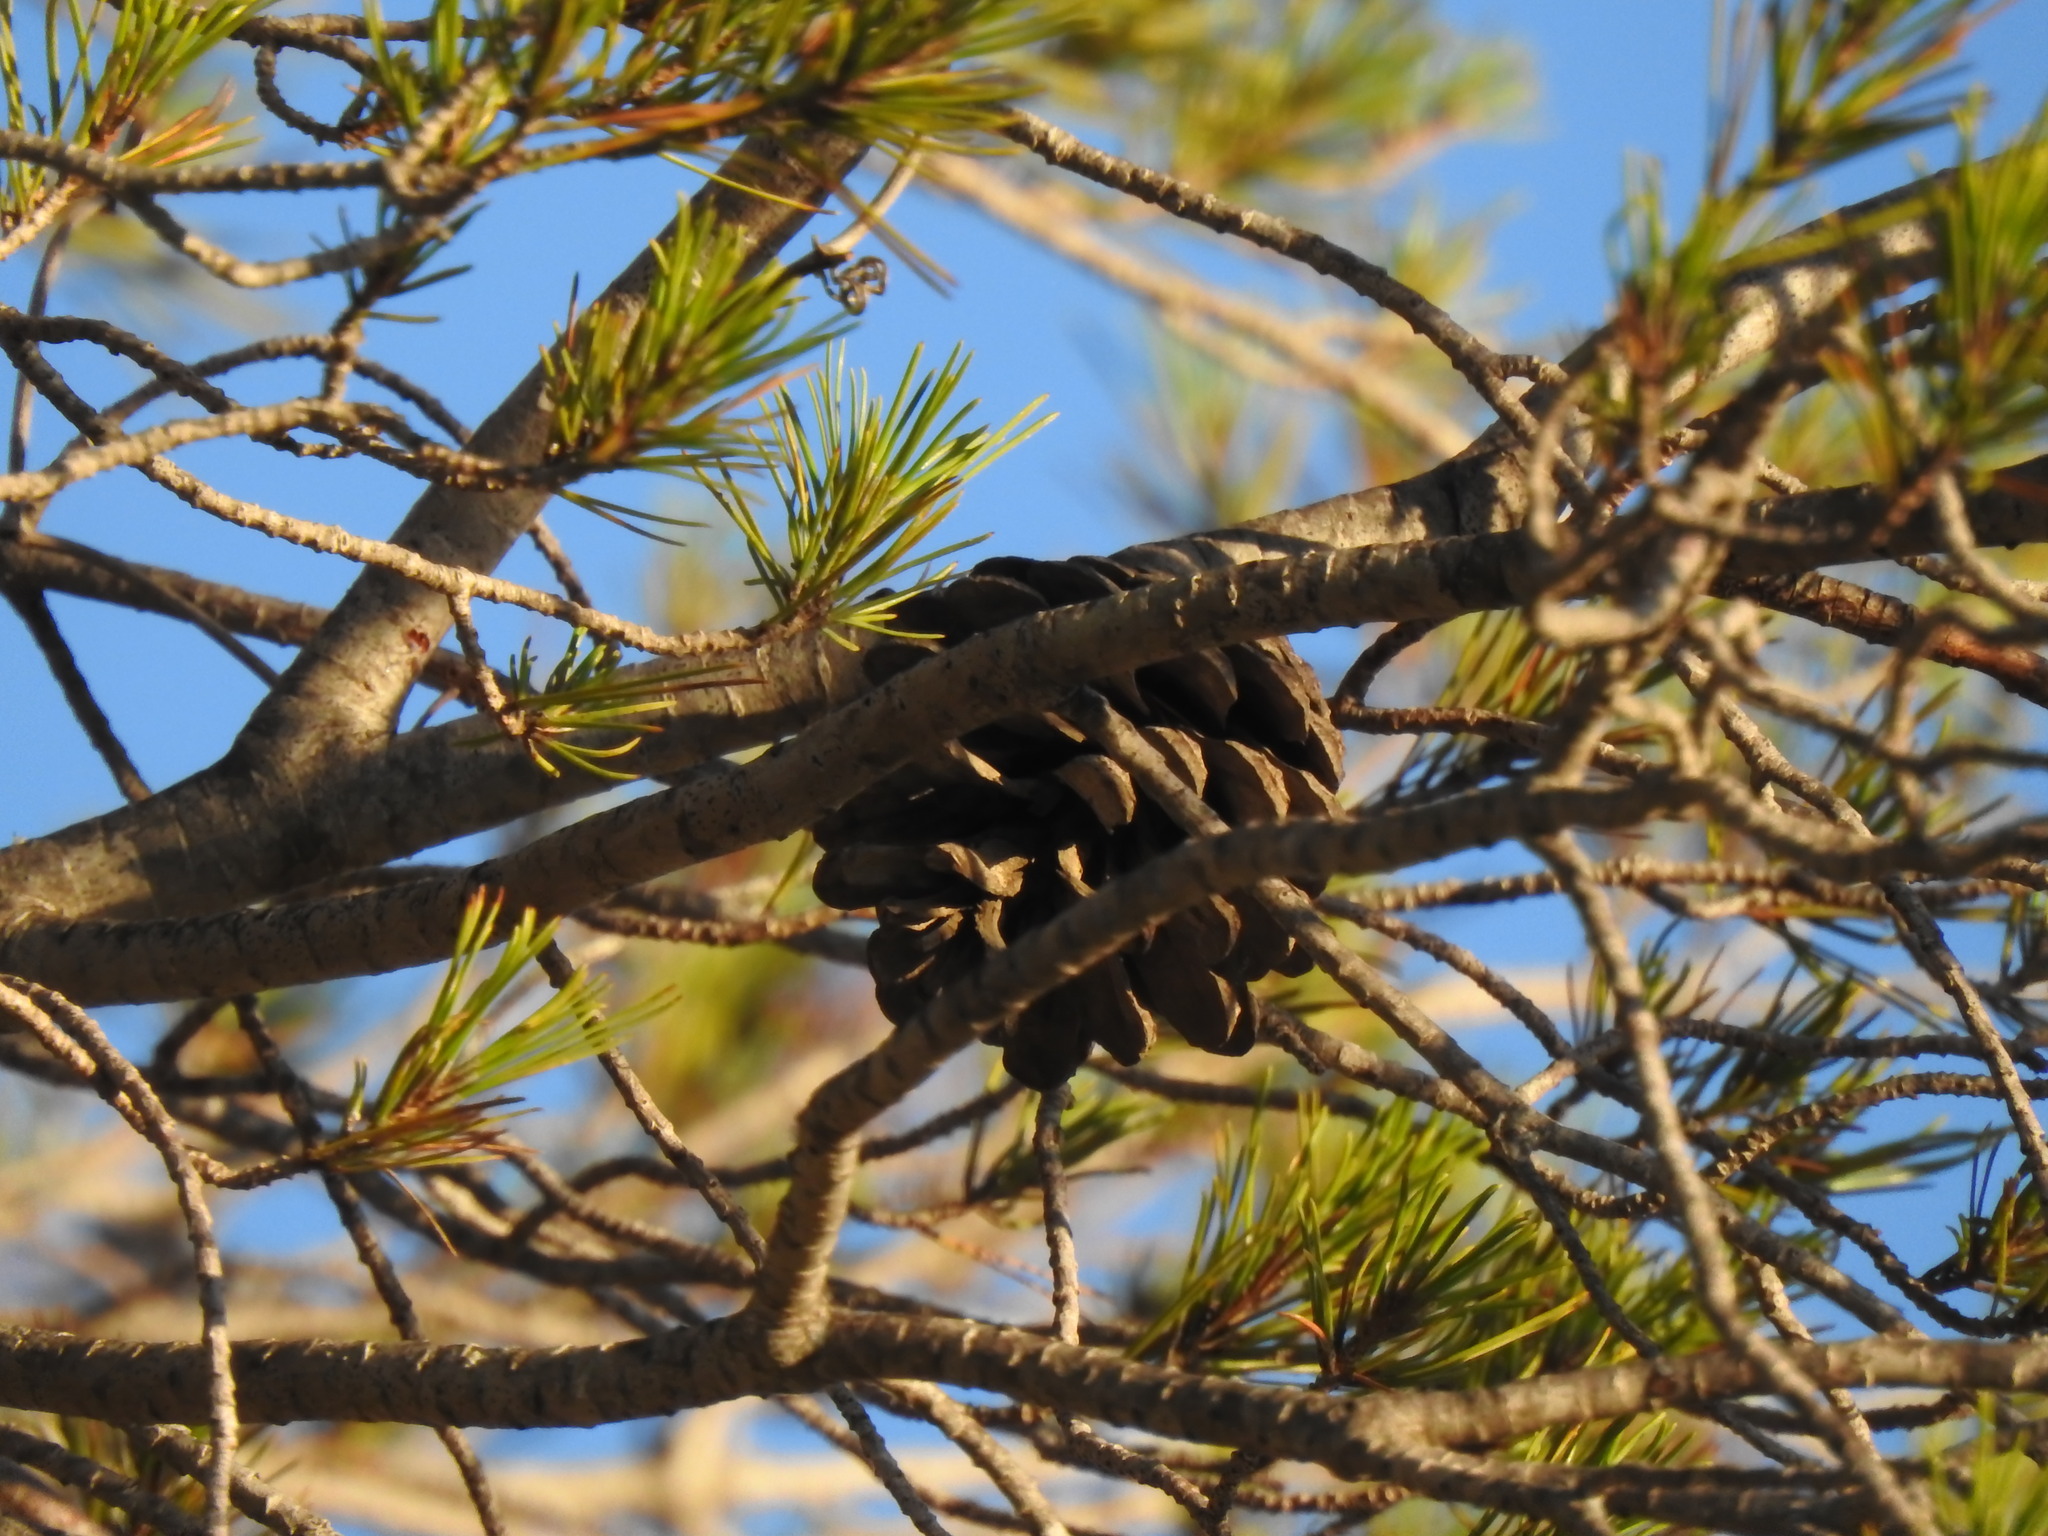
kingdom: Plantae
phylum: Tracheophyta
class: Pinopsida
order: Pinales
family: Pinaceae
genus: Pinus
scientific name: Pinus halepensis
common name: Aleppo pine
